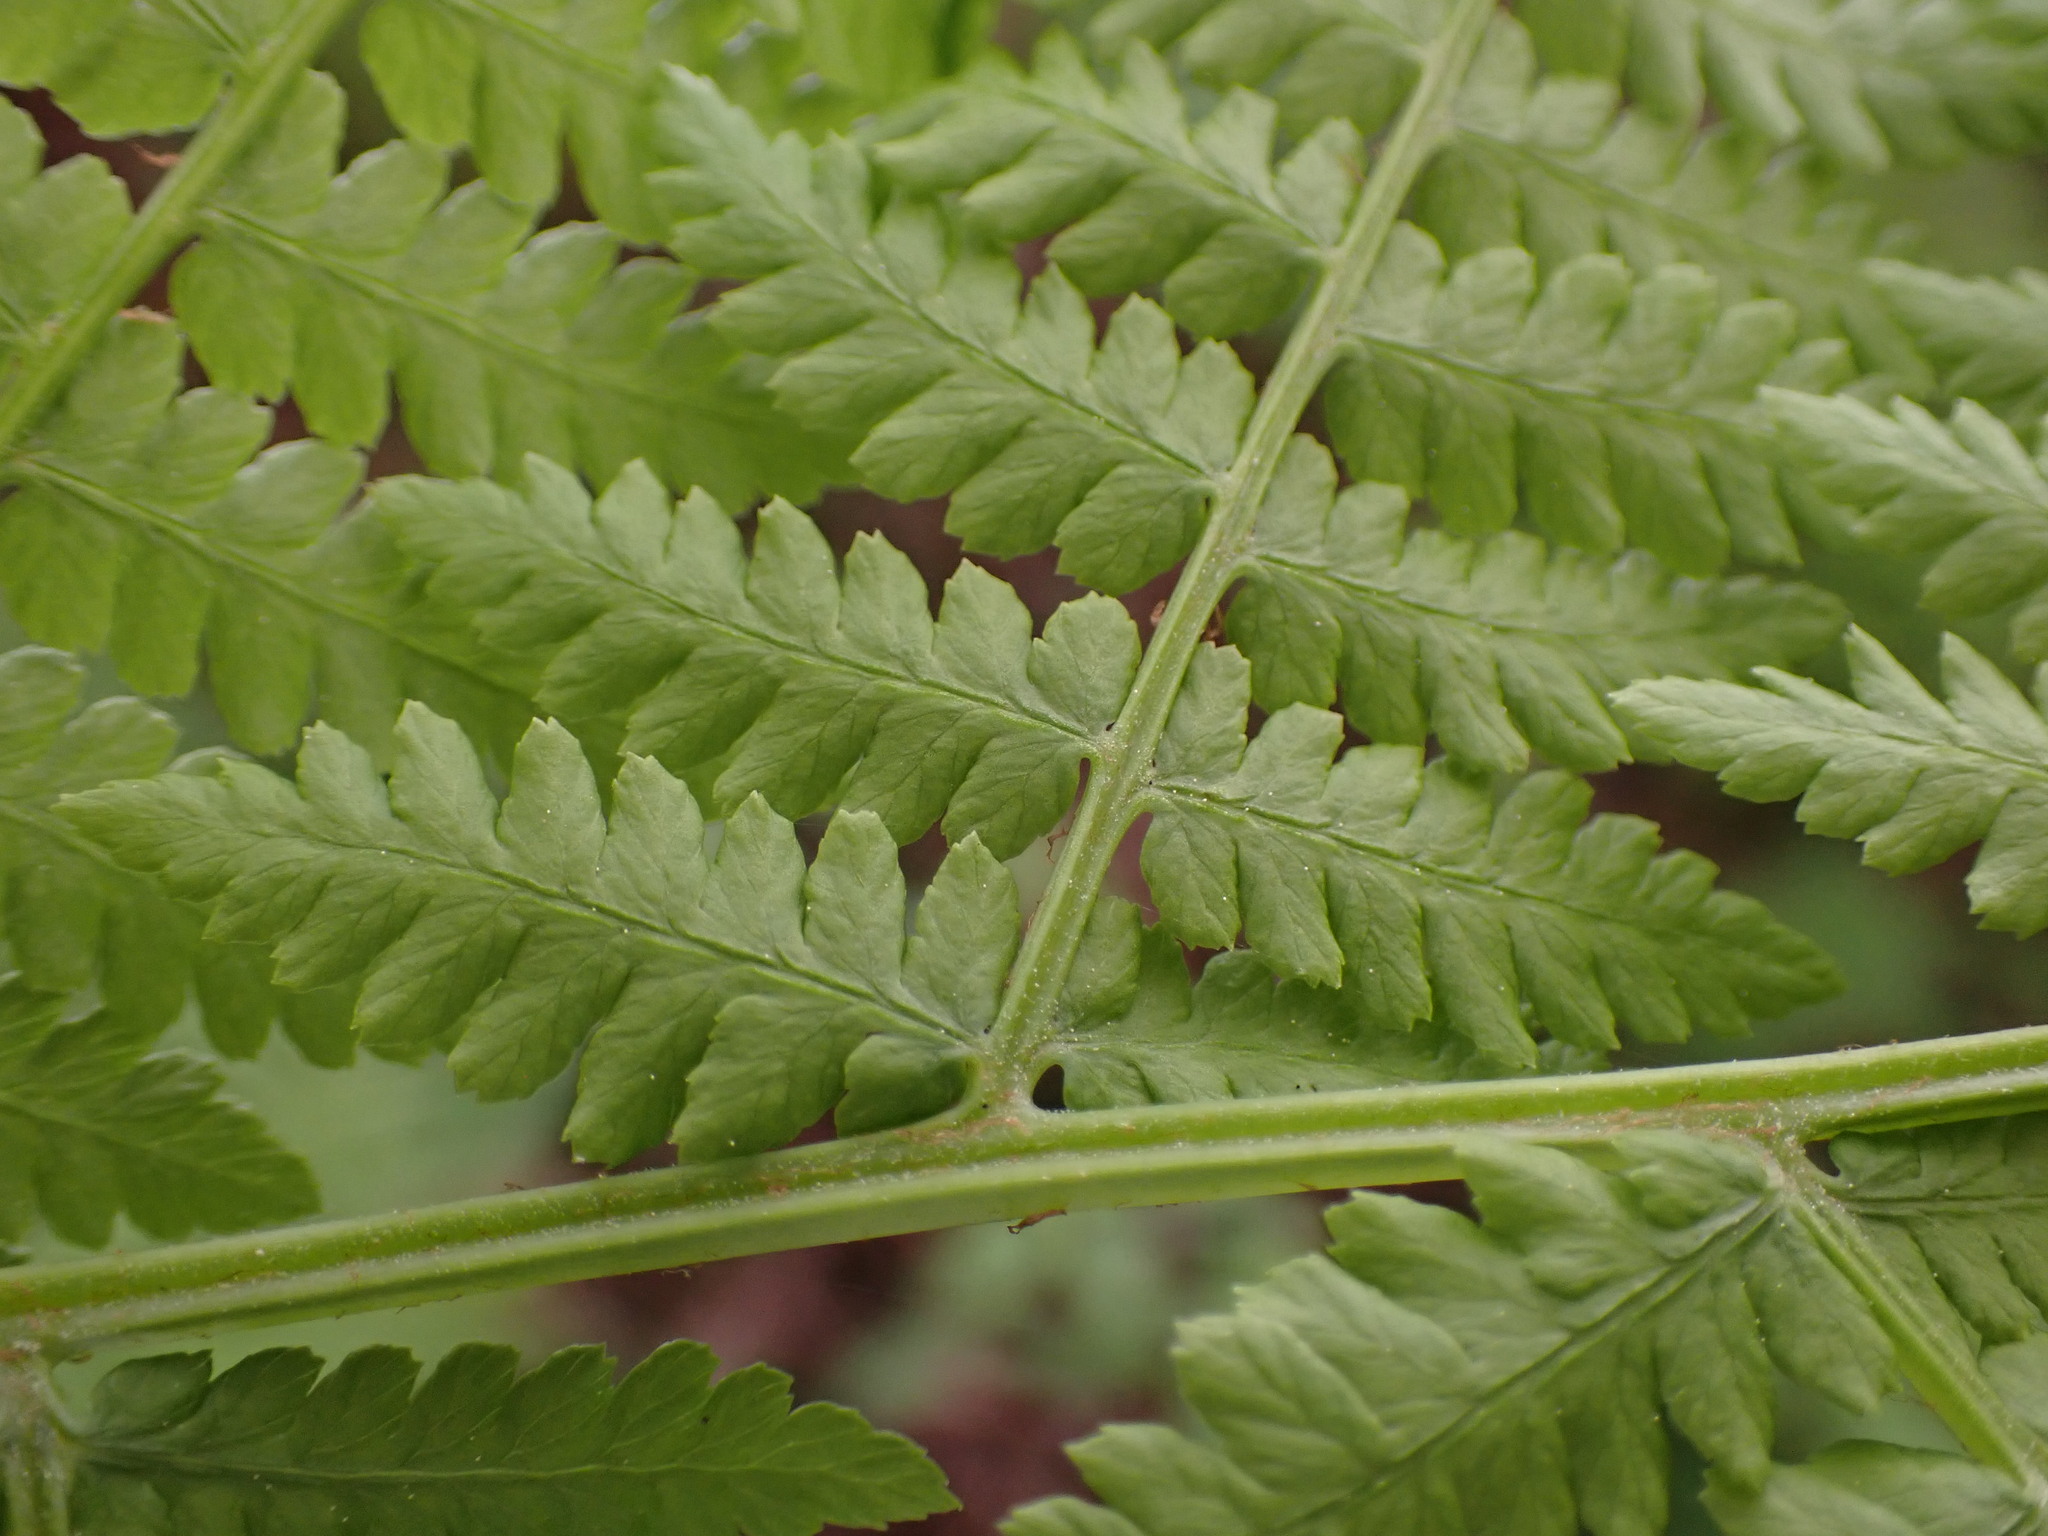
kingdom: Plantae
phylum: Tracheophyta
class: Polypodiopsida
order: Polypodiales
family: Athyriaceae
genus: Athyrium
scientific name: Athyrium filix-femina
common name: Lady fern
